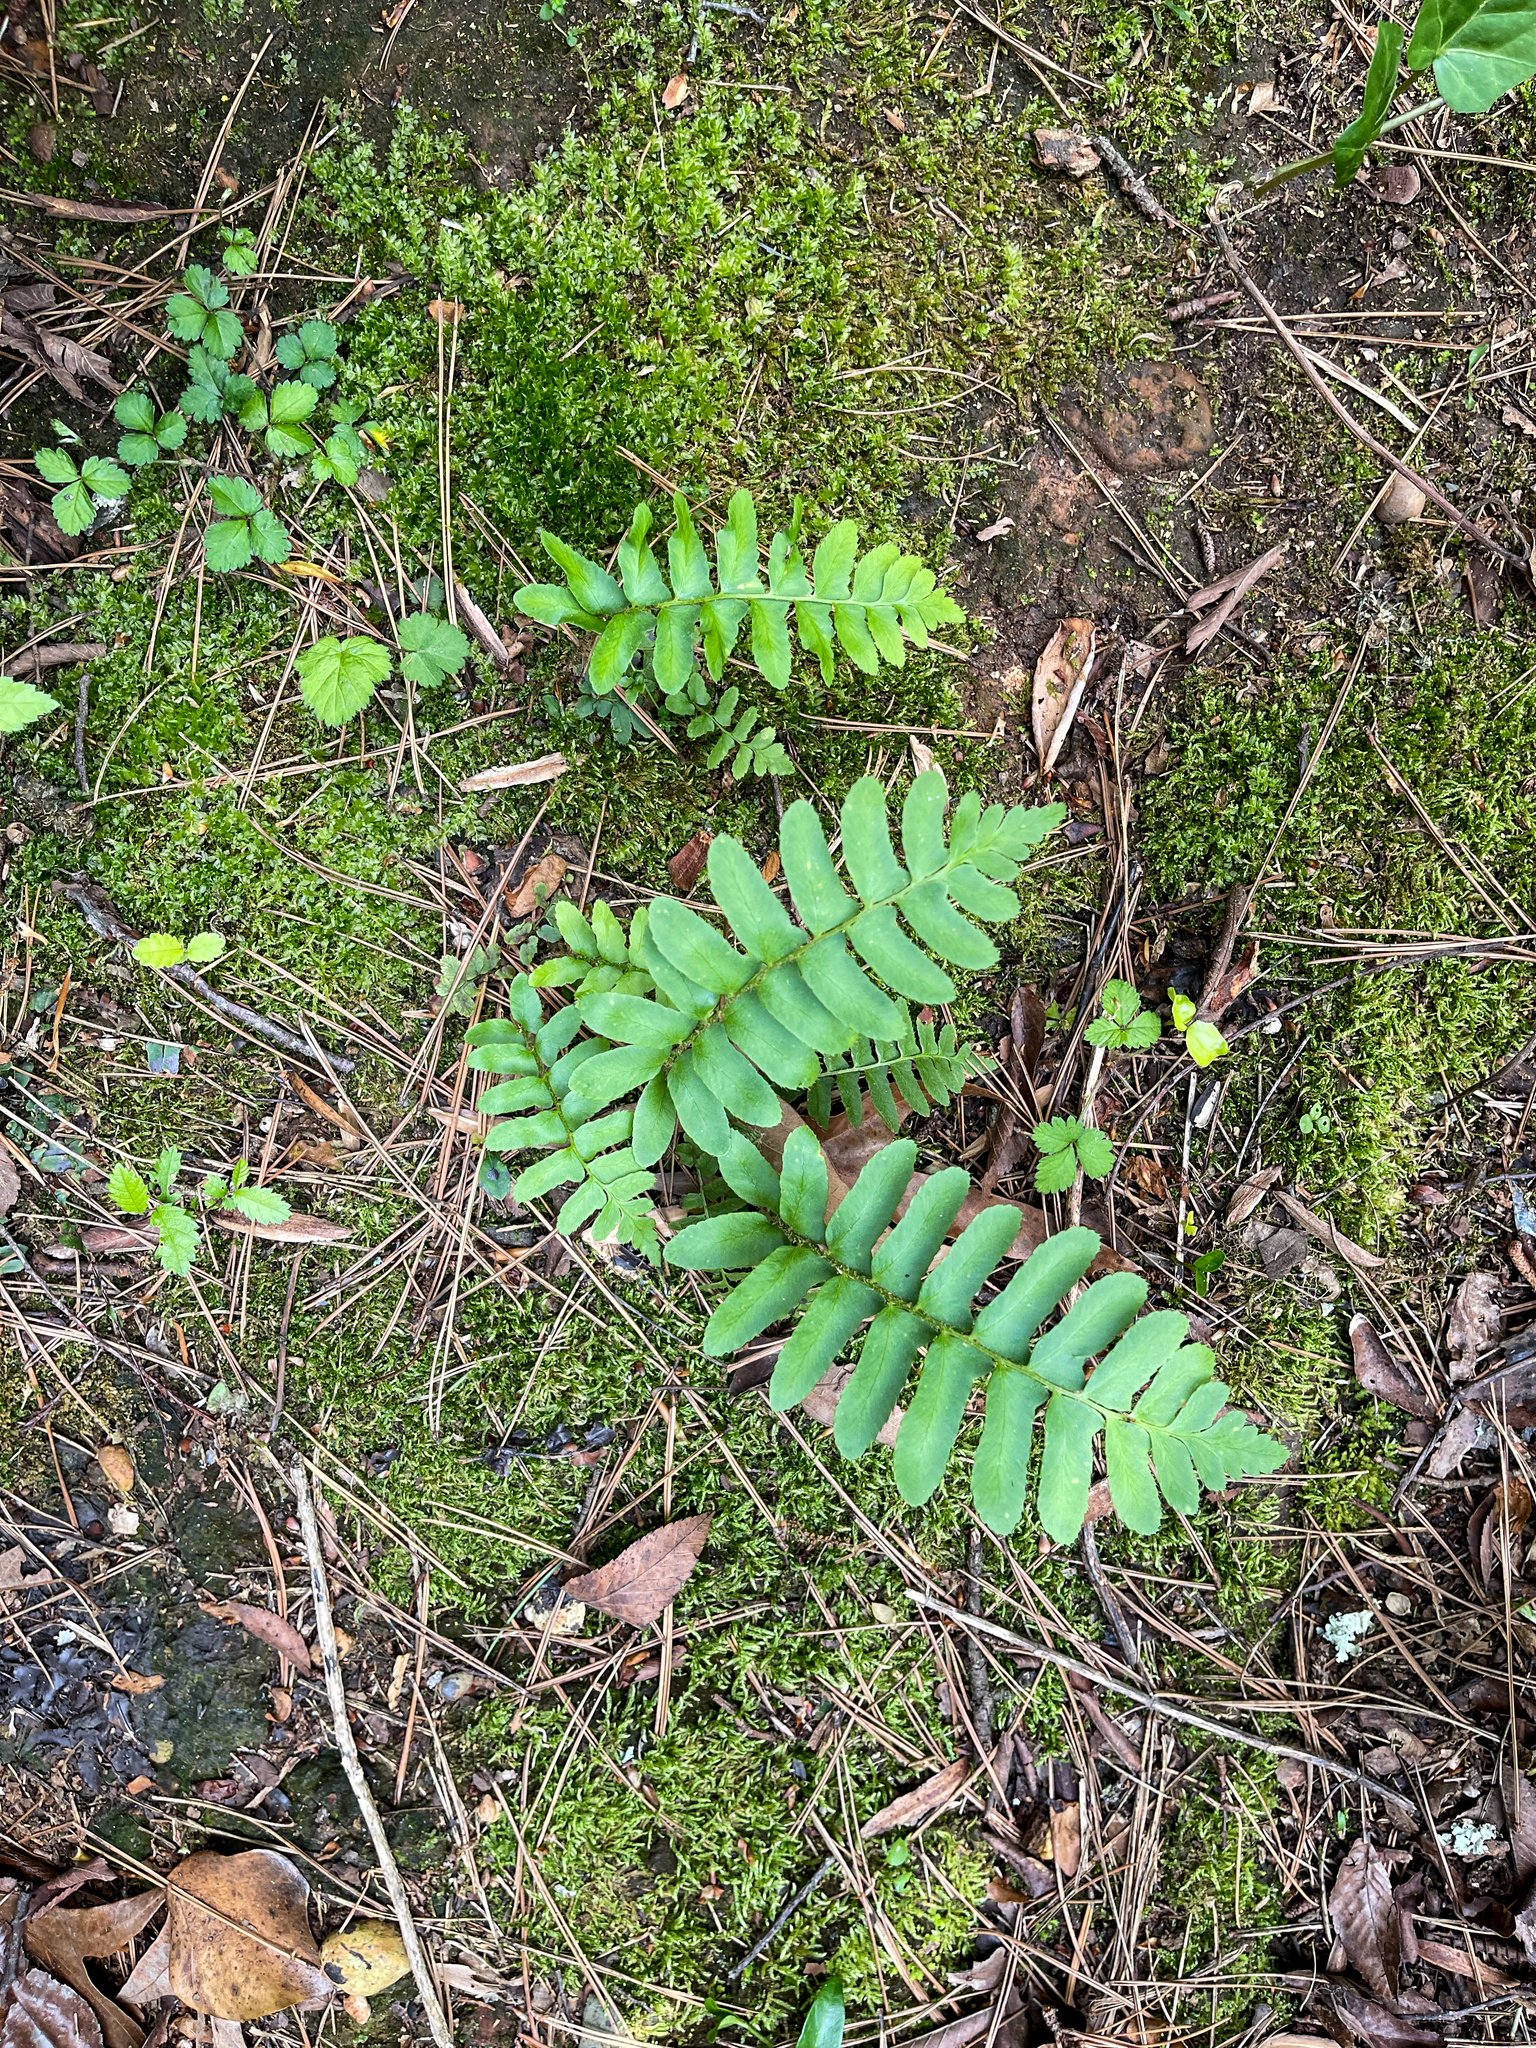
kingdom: Plantae
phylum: Tracheophyta
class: Polypodiopsida
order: Polypodiales
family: Dryopteridaceae
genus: Polystichum
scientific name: Polystichum acrostichoides
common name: Christmas fern
